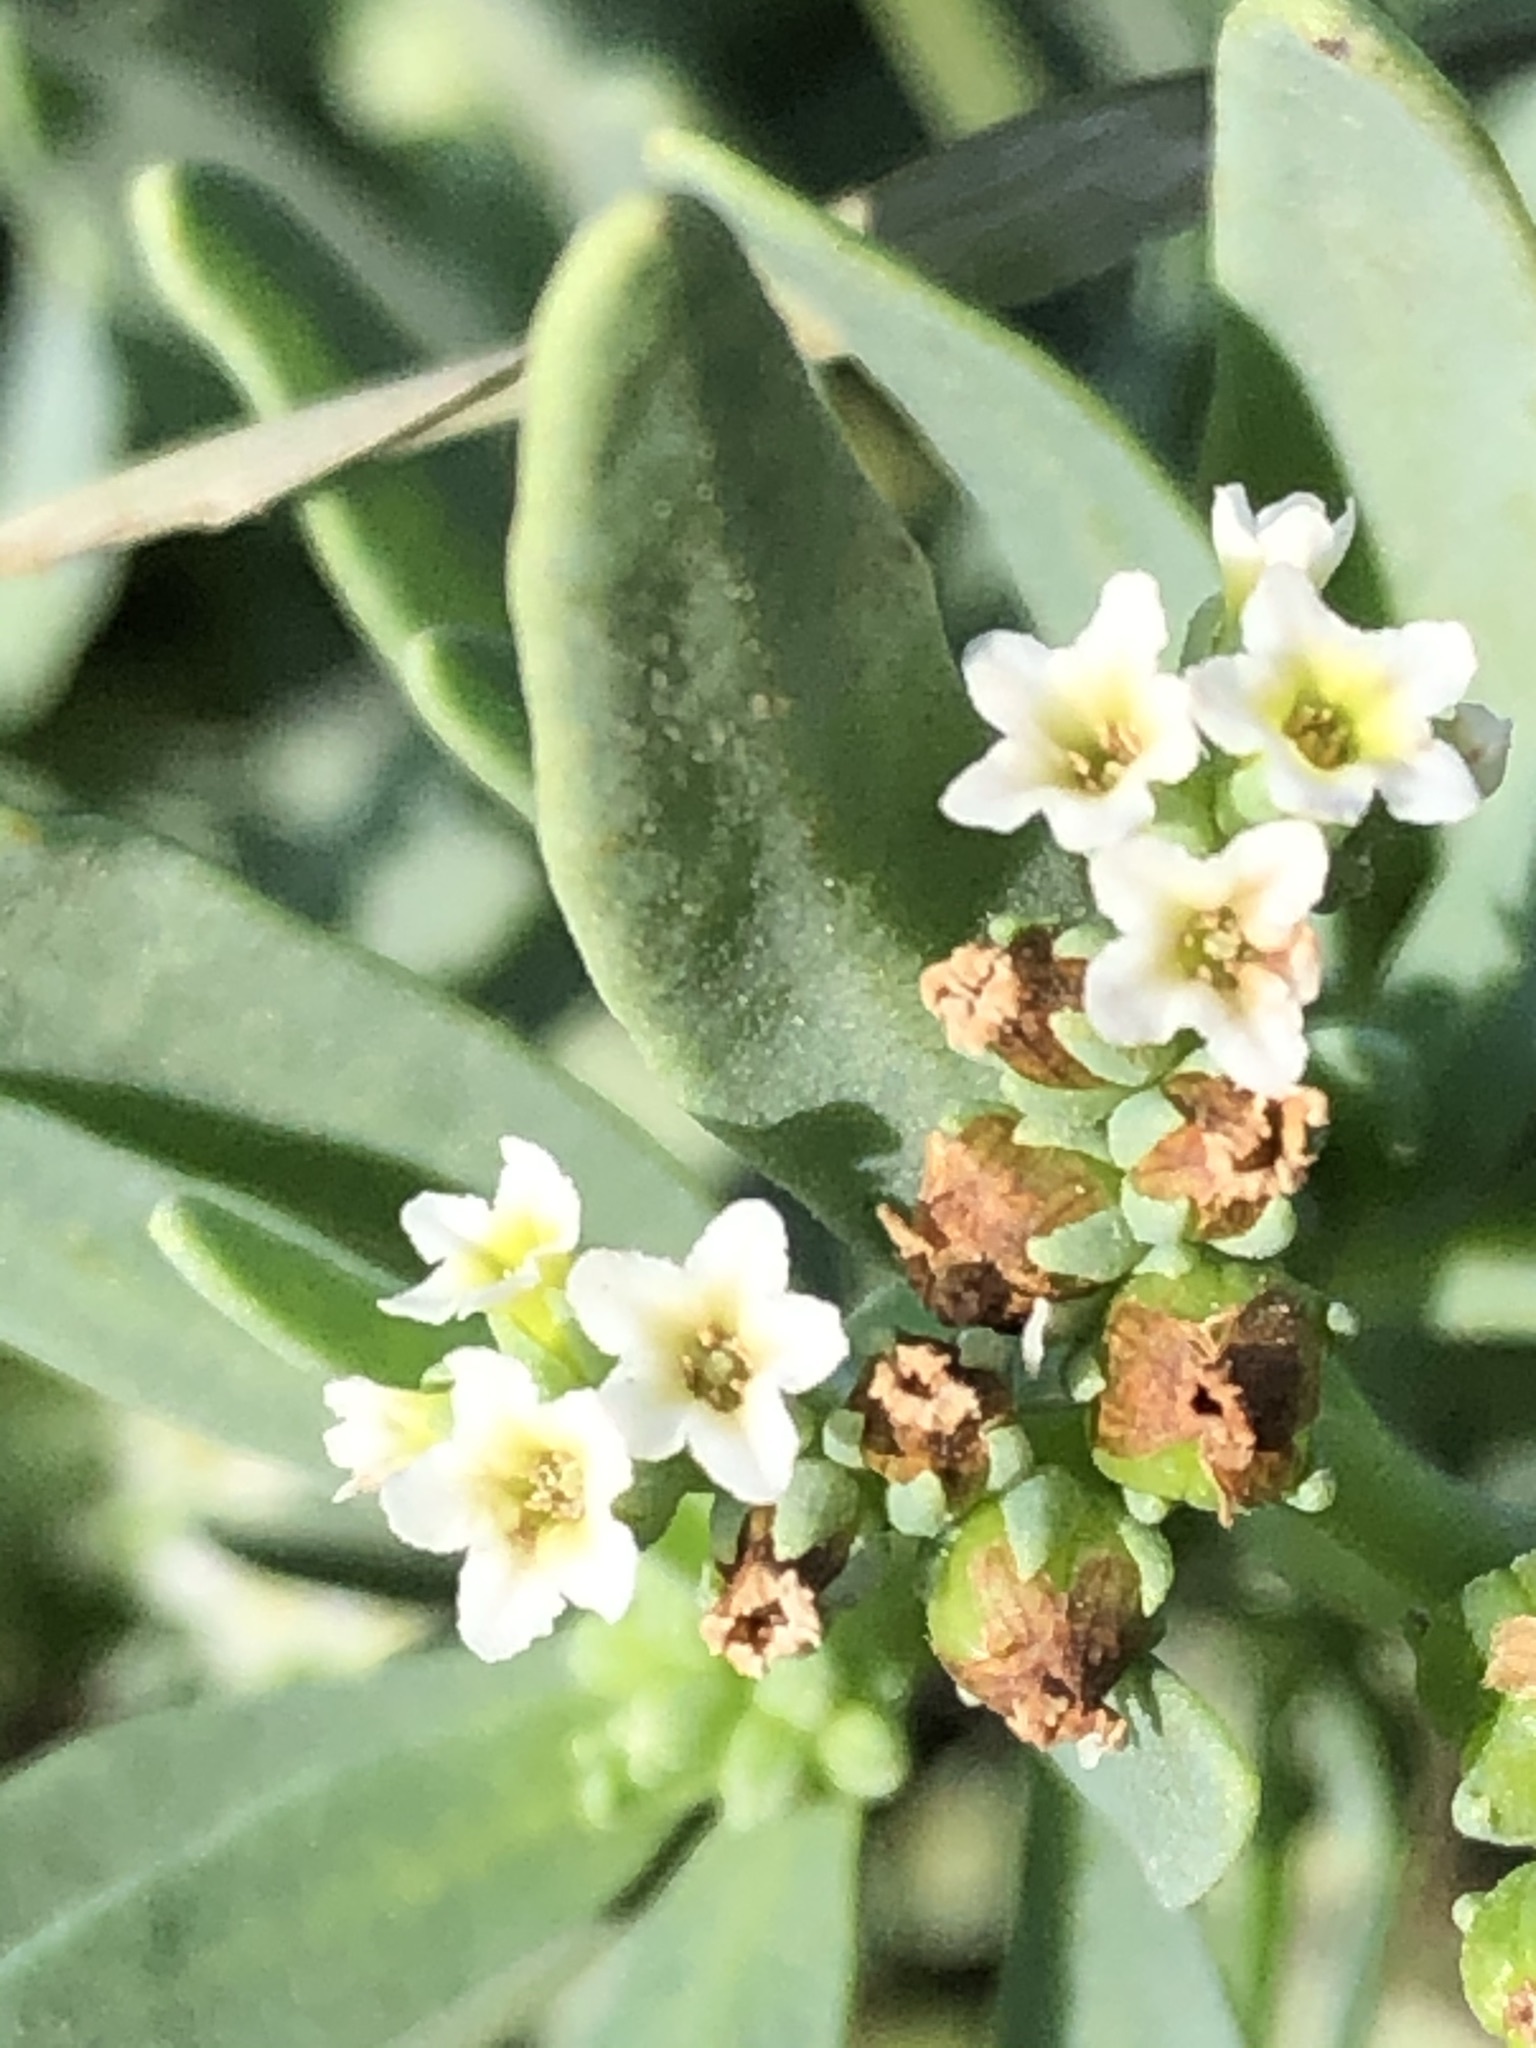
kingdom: Plantae
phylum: Tracheophyta
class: Magnoliopsida
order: Boraginales
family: Heliotropiaceae
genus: Heliotropium
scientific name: Heliotropium curassavicum
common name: Seaside heliotrope
